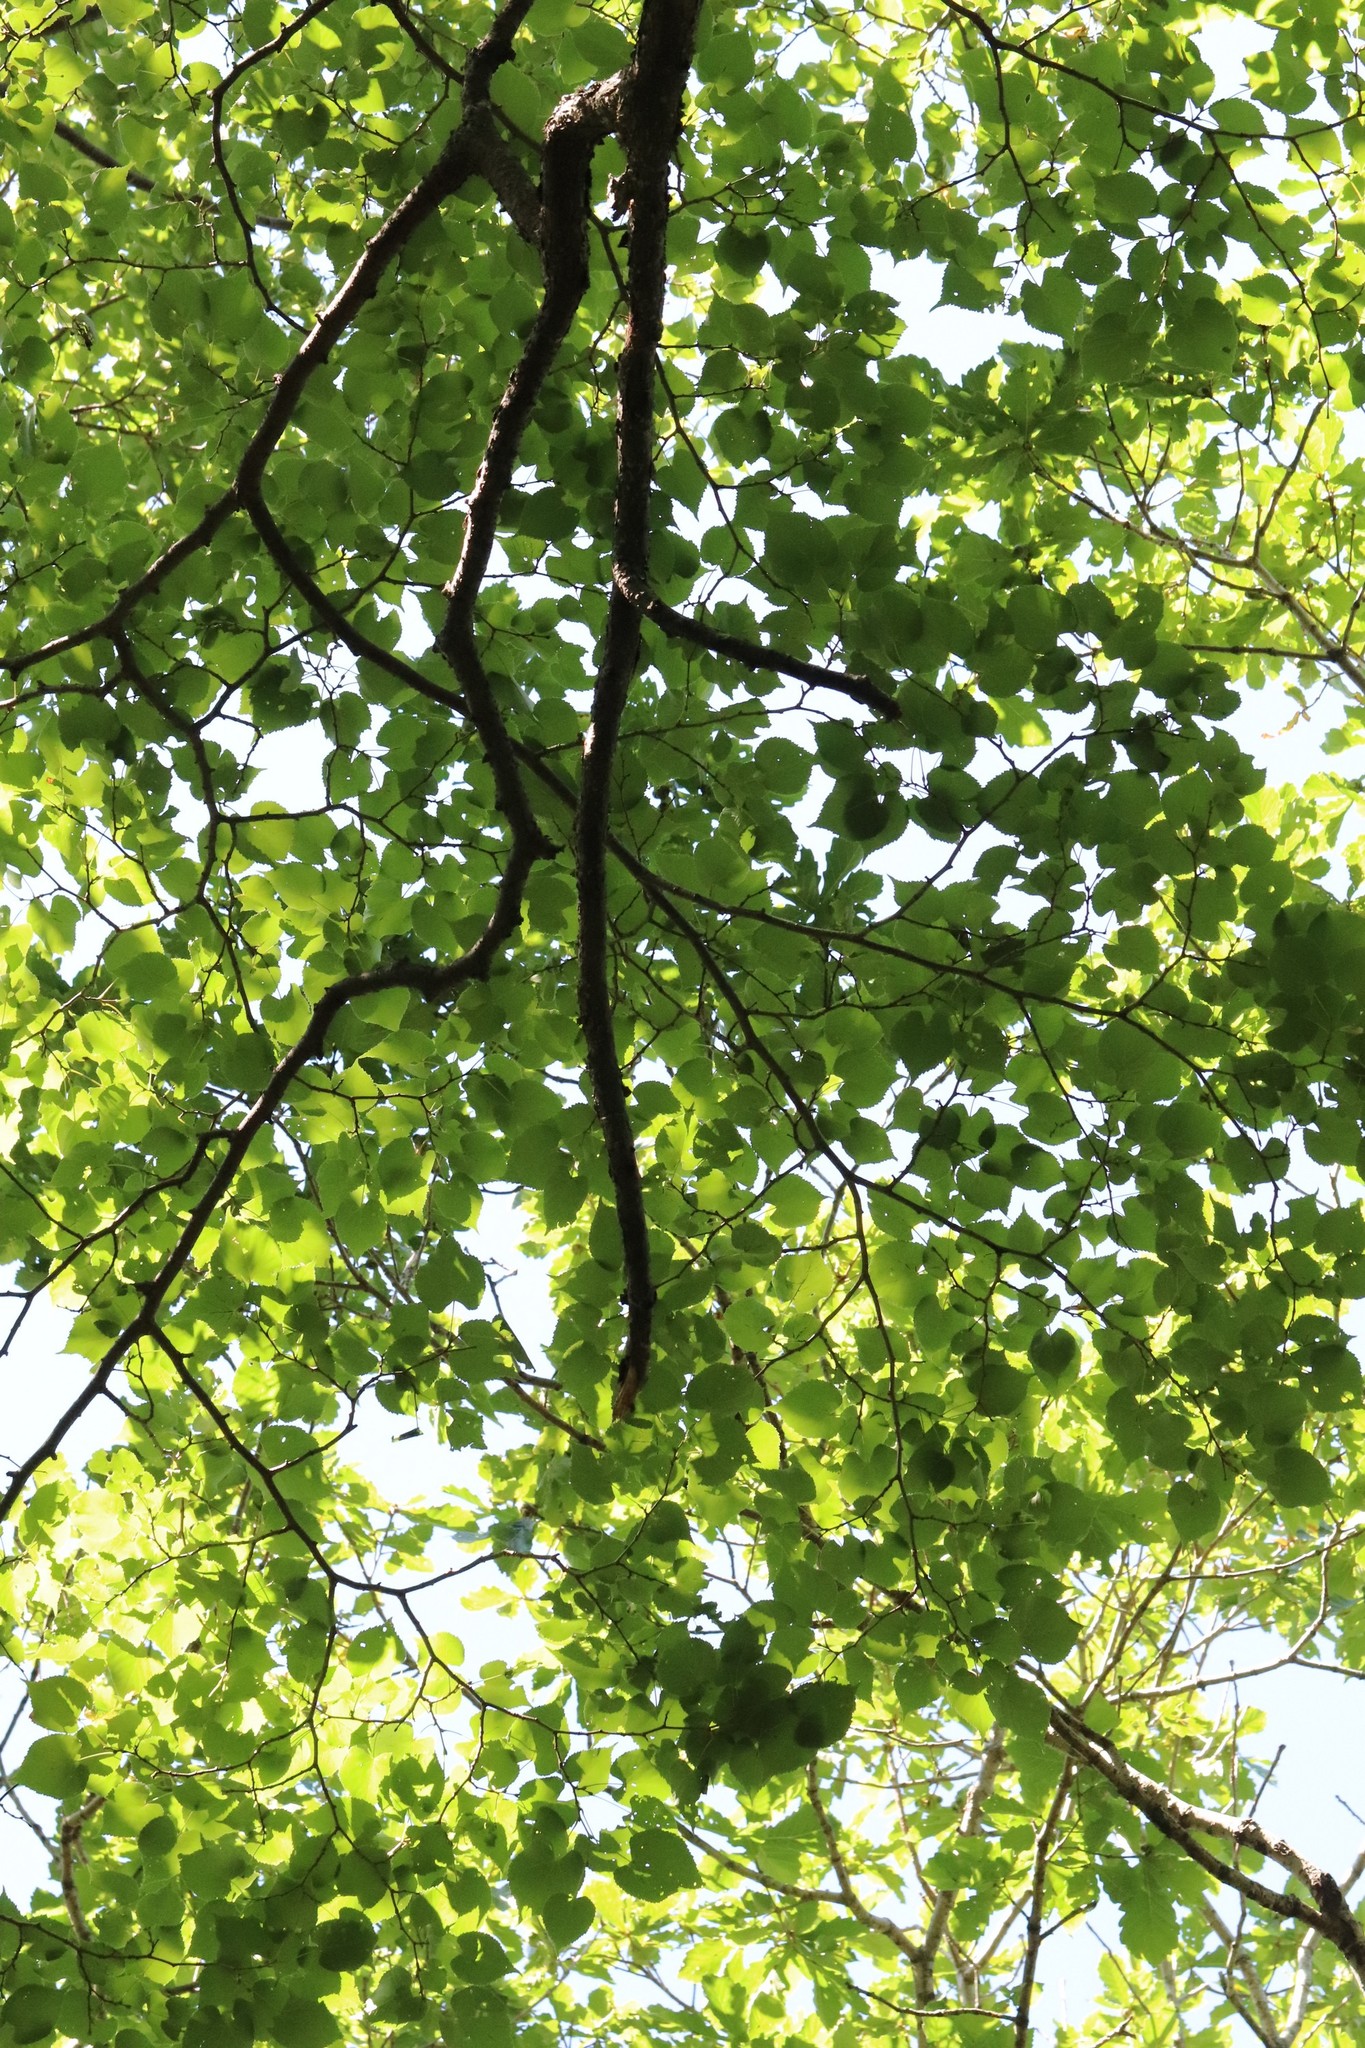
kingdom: Plantae
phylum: Tracheophyta
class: Magnoliopsida
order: Malvales
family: Malvaceae
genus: Tilia
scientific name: Tilia amurensis
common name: Amur lime
